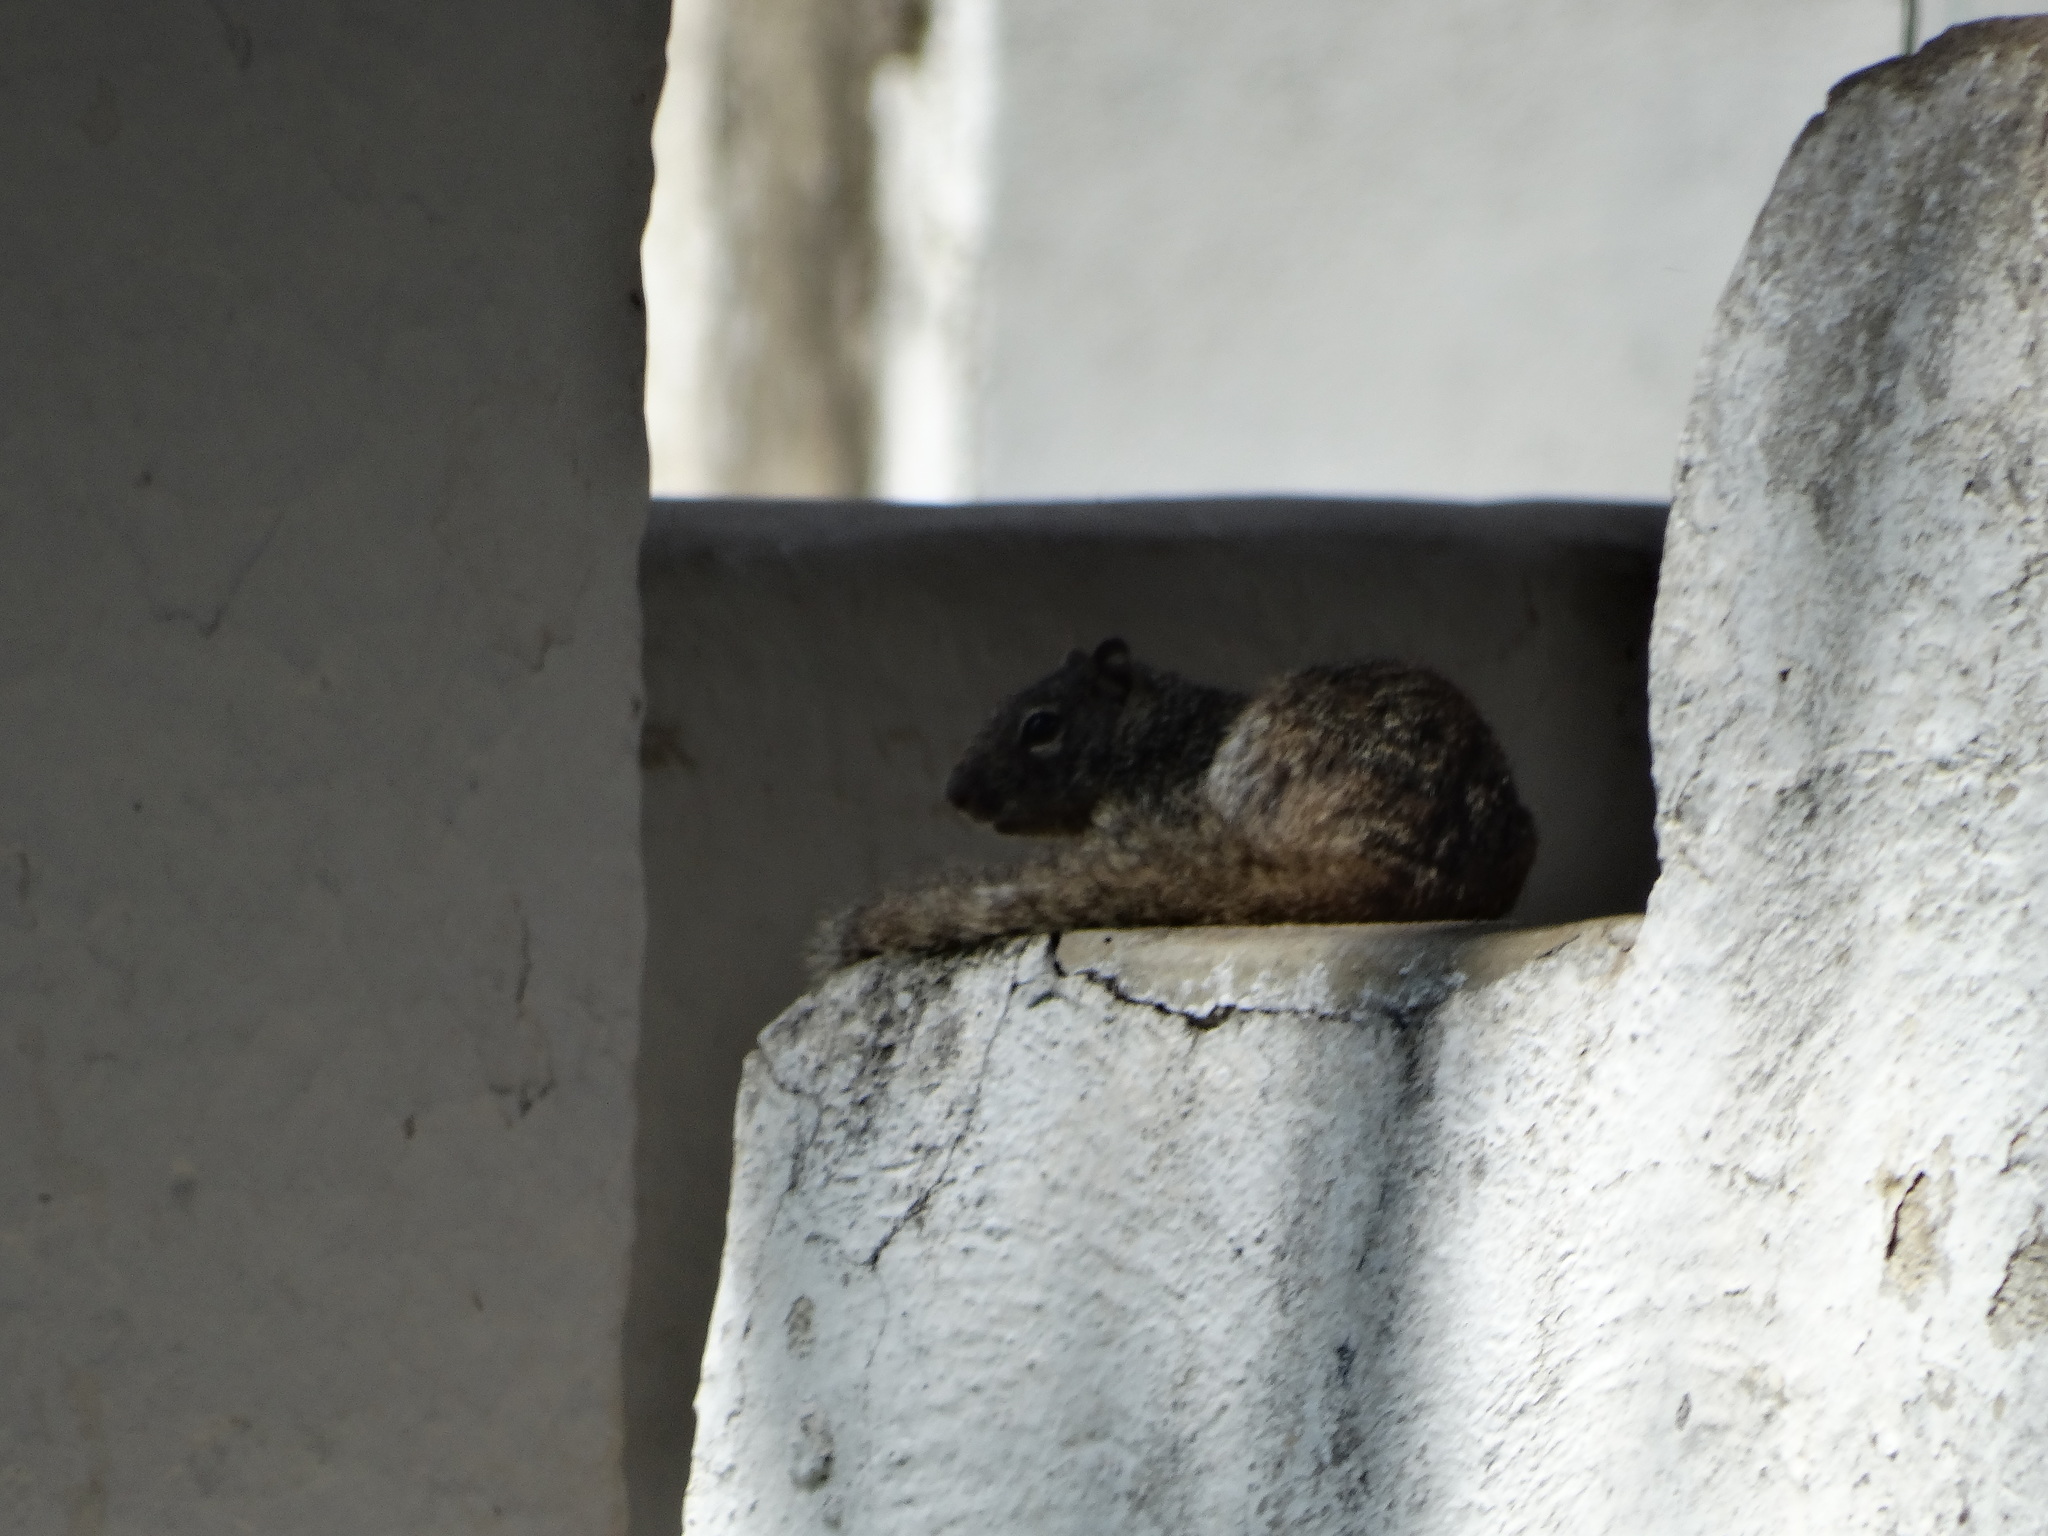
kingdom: Animalia
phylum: Chordata
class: Mammalia
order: Rodentia
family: Sciuridae
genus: Otospermophilus
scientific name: Otospermophilus variegatus
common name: Rock squirrel
